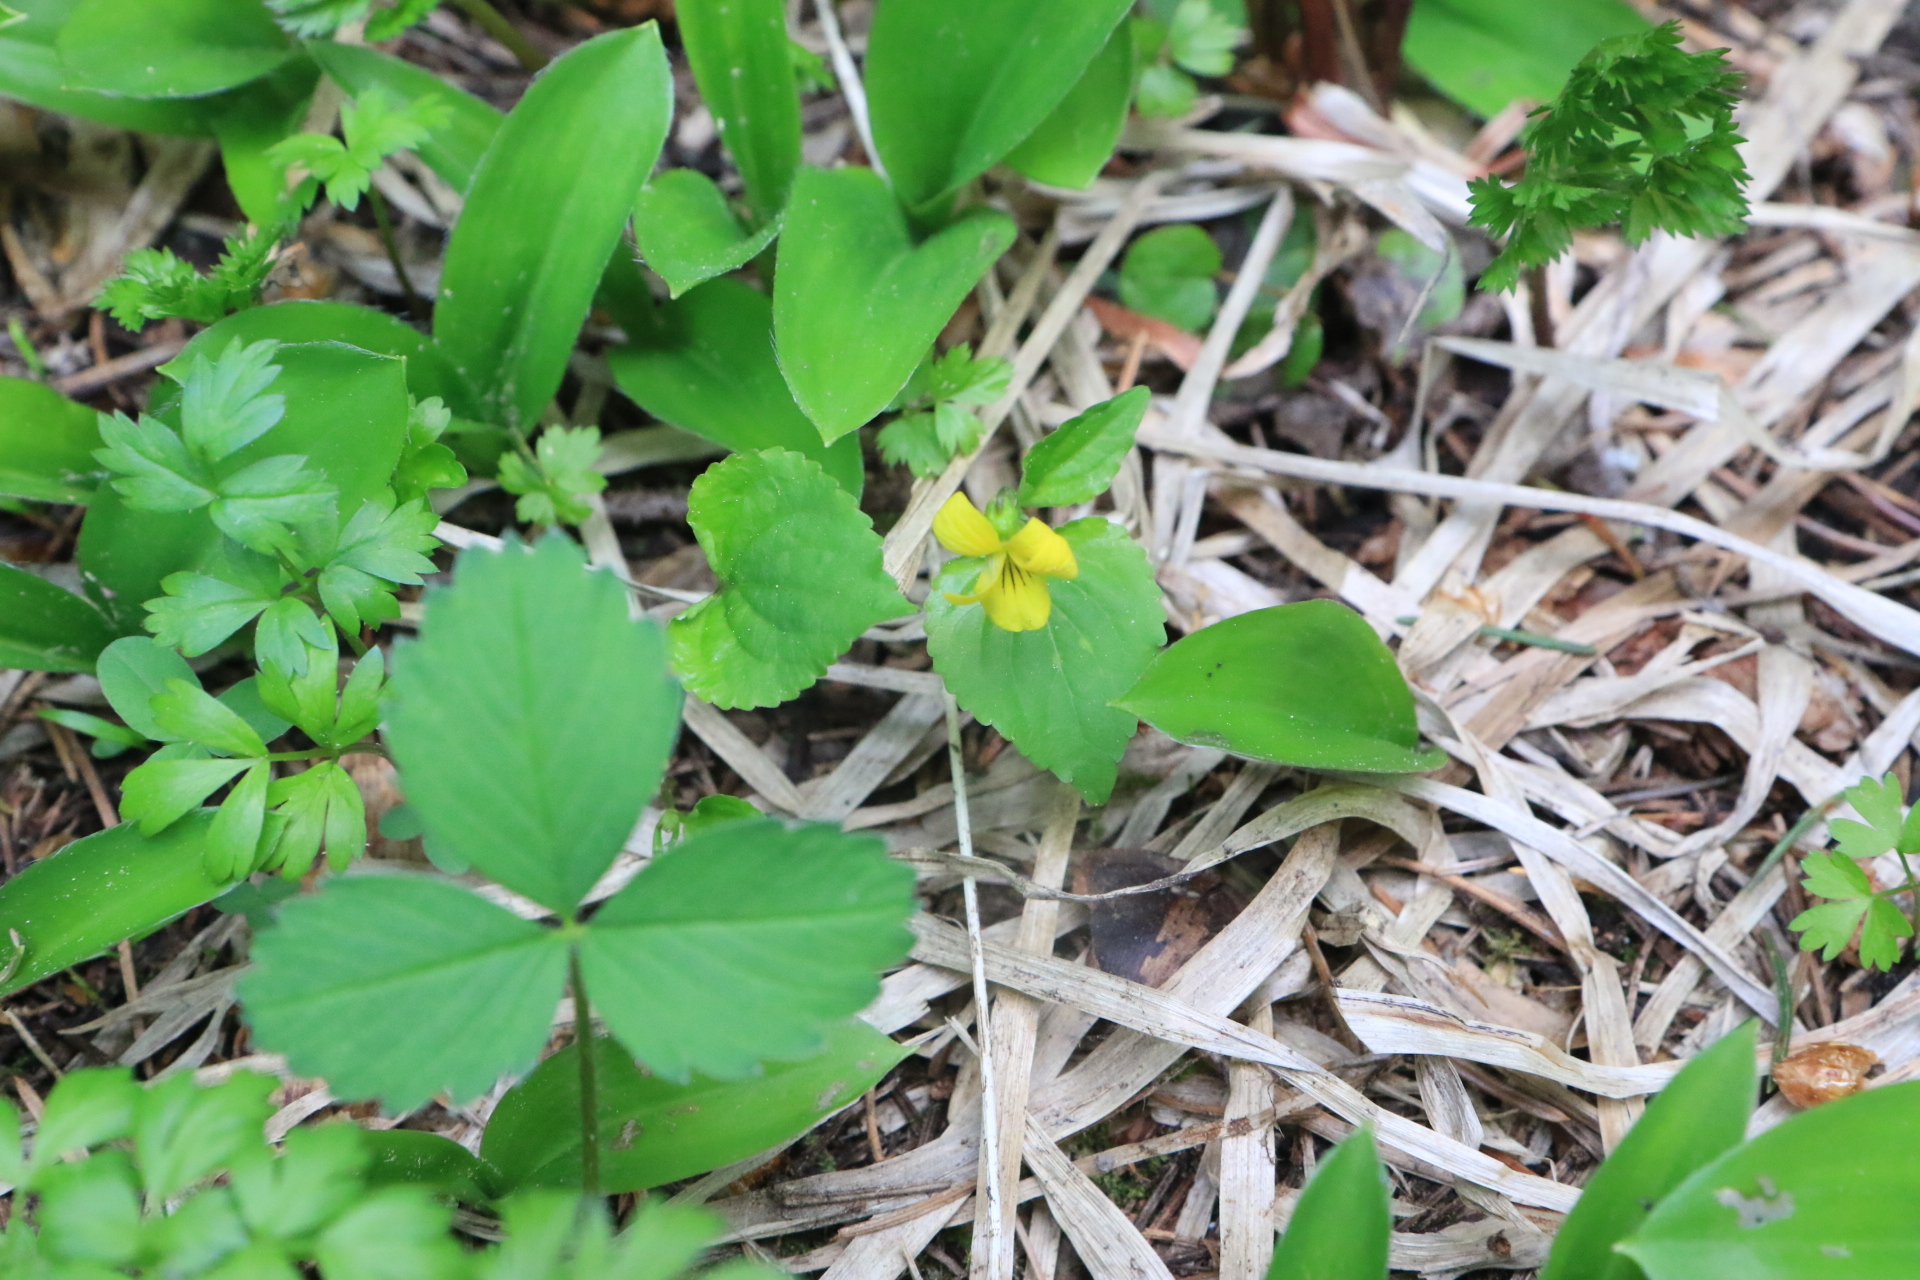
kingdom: Plantae
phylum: Tracheophyta
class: Magnoliopsida
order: Malpighiales
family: Violaceae
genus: Viola
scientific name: Viola glabella
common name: Stream violet
